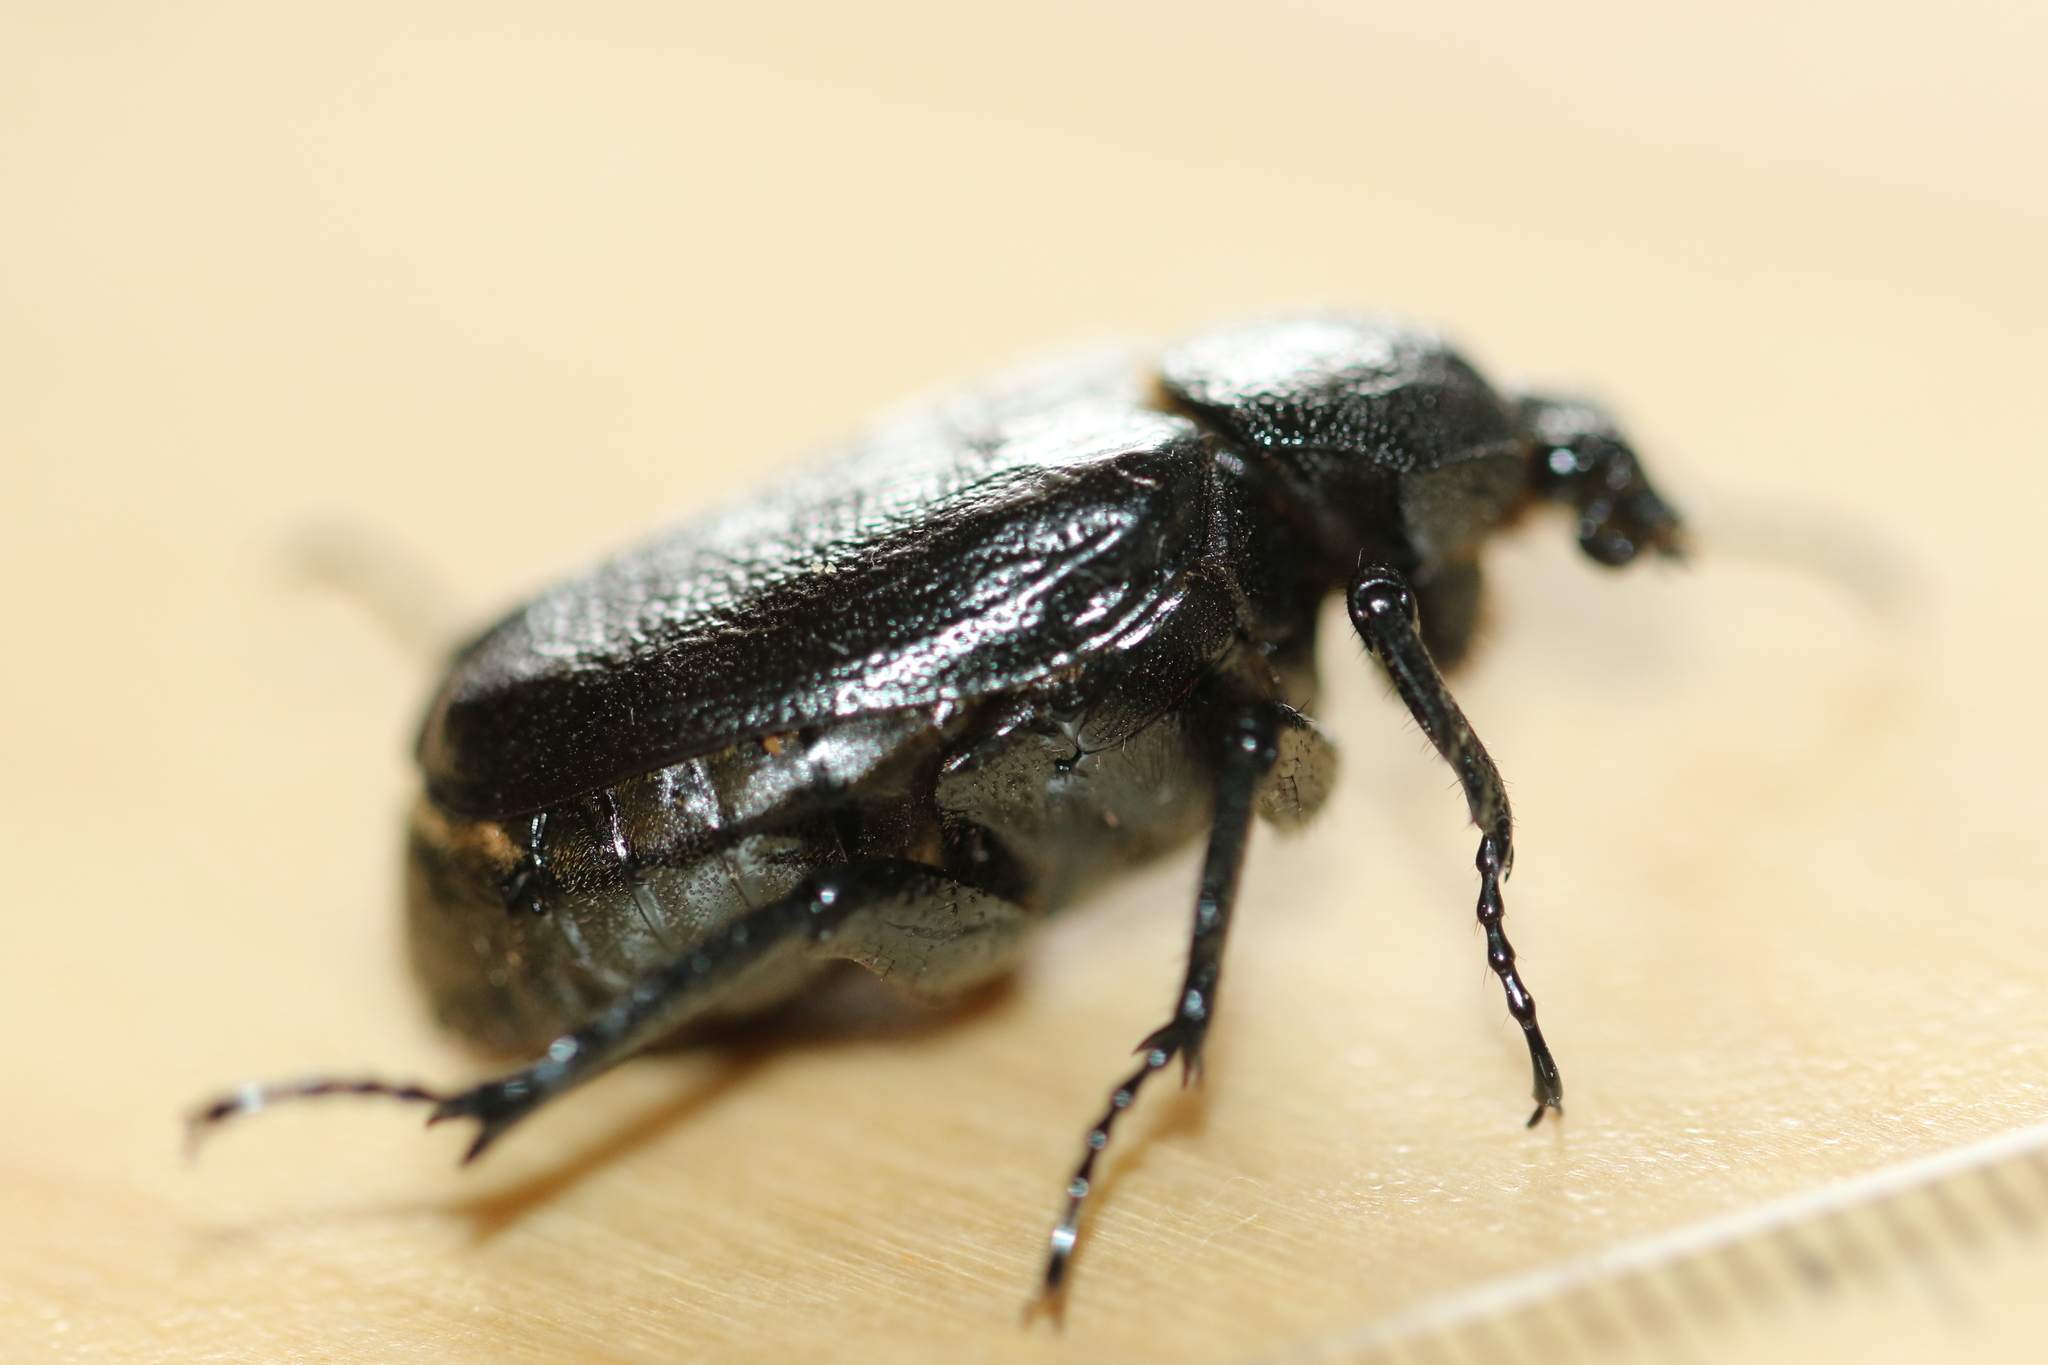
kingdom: Animalia
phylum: Arthropoda
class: Insecta
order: Coleoptera
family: Scarabaeidae
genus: Osmoderma
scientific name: Osmoderma scabra
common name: Rough hermit beetle
